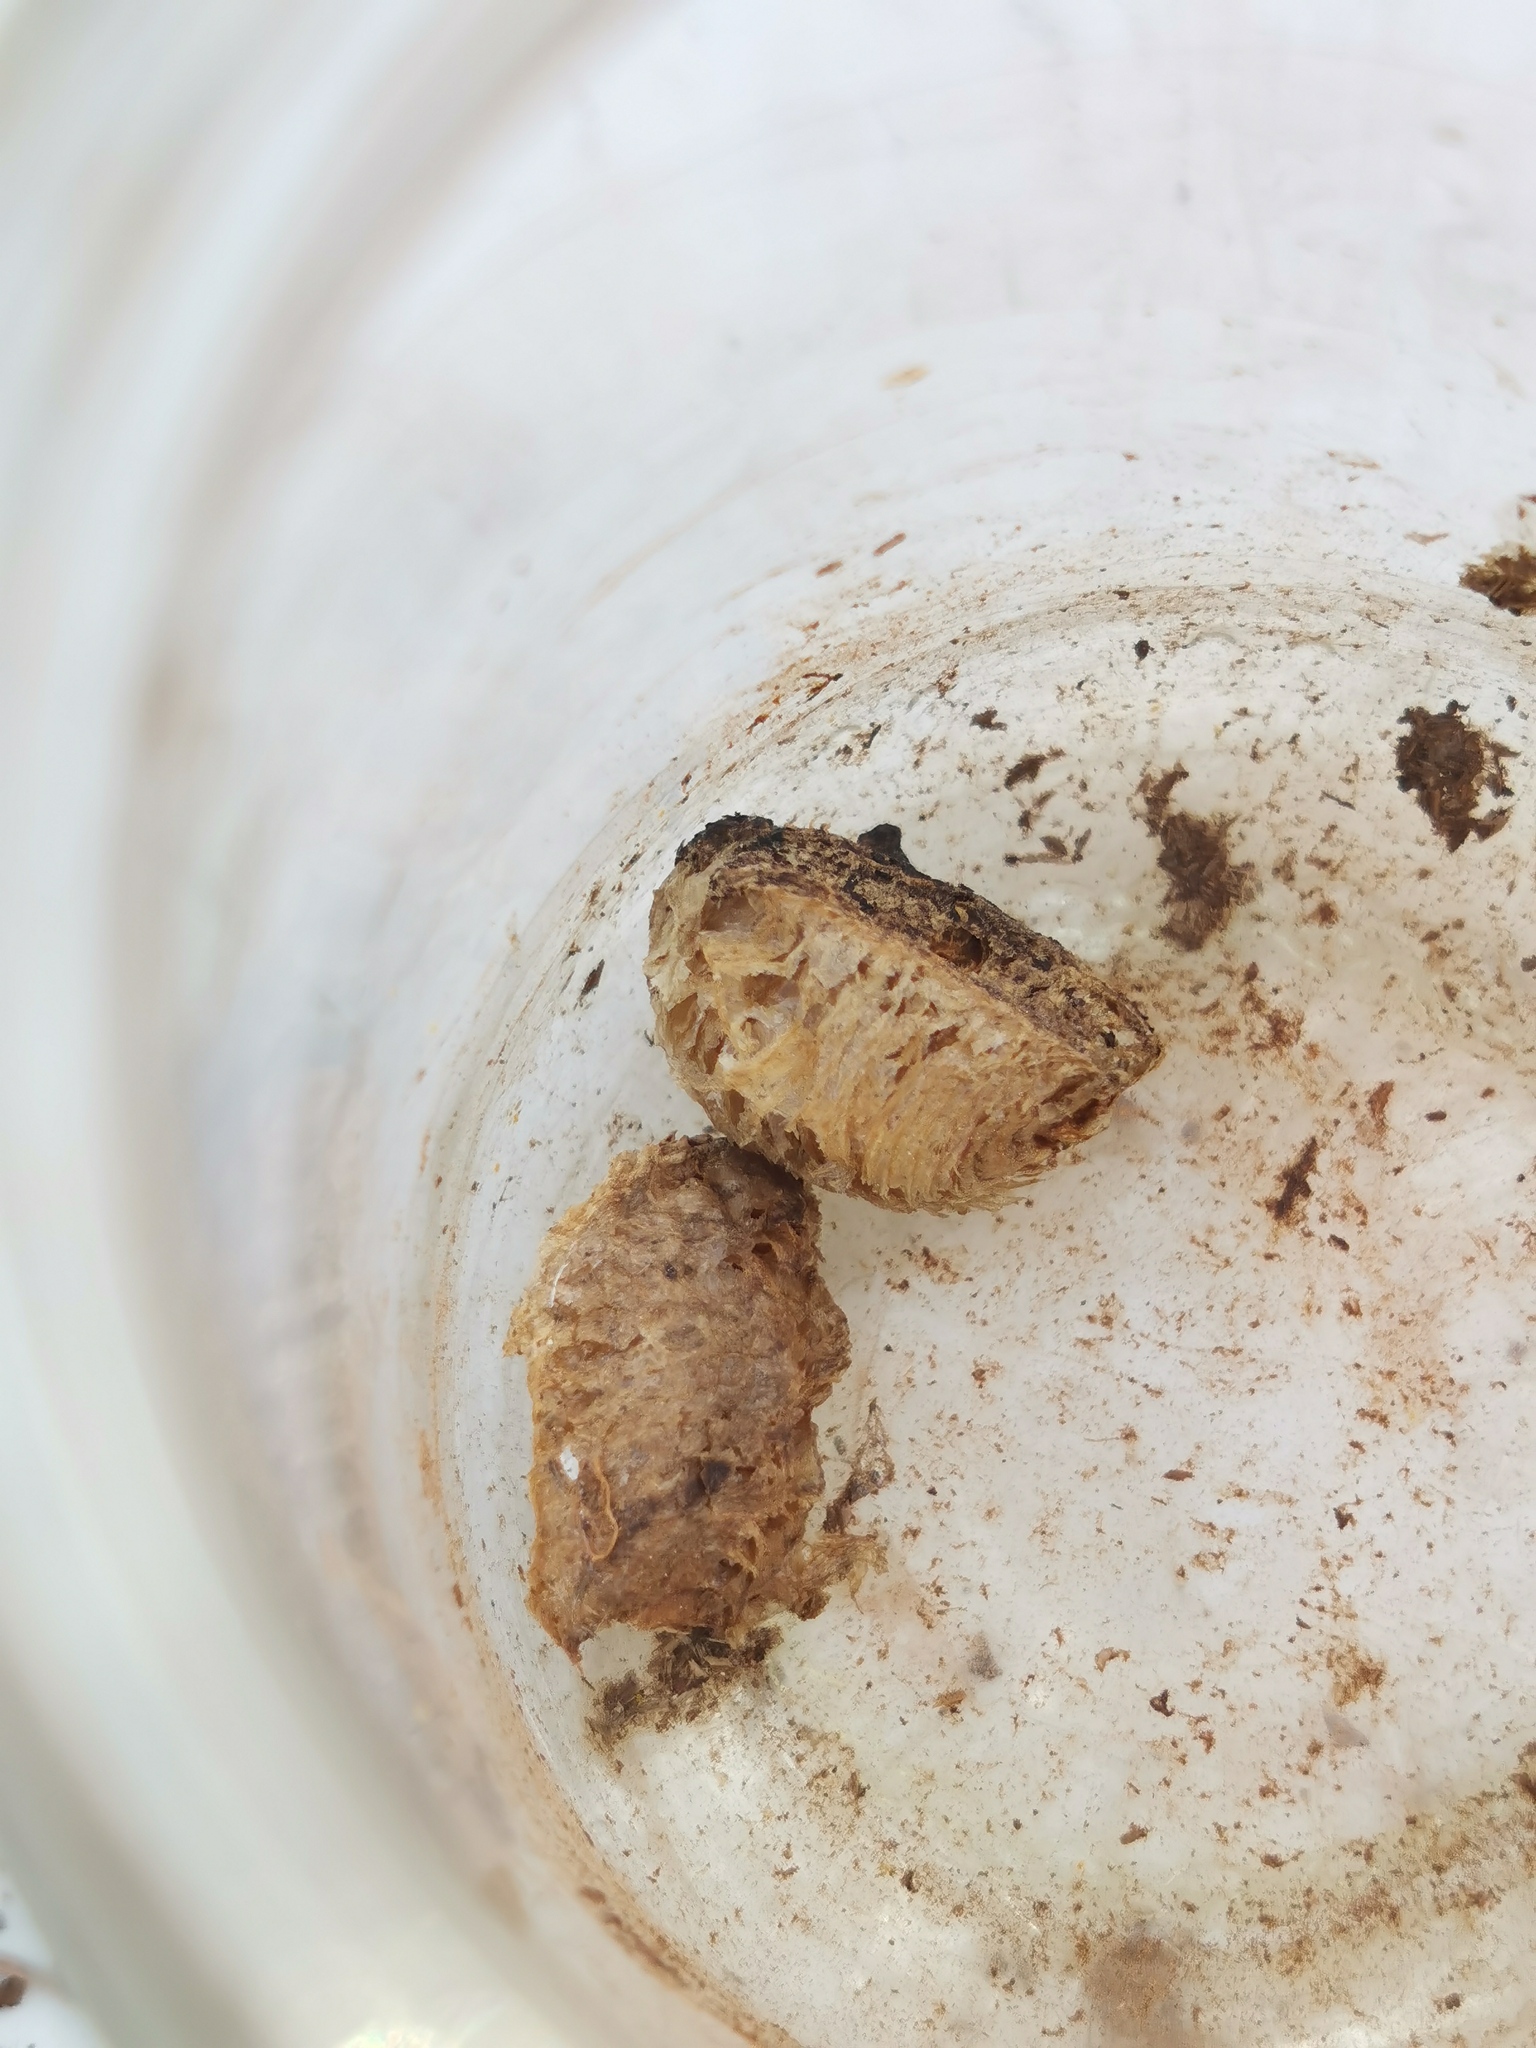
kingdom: Animalia
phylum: Arthropoda
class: Insecta
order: Mantodea
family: Mantidae
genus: Mantis
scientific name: Mantis religiosa
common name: Praying mantis
